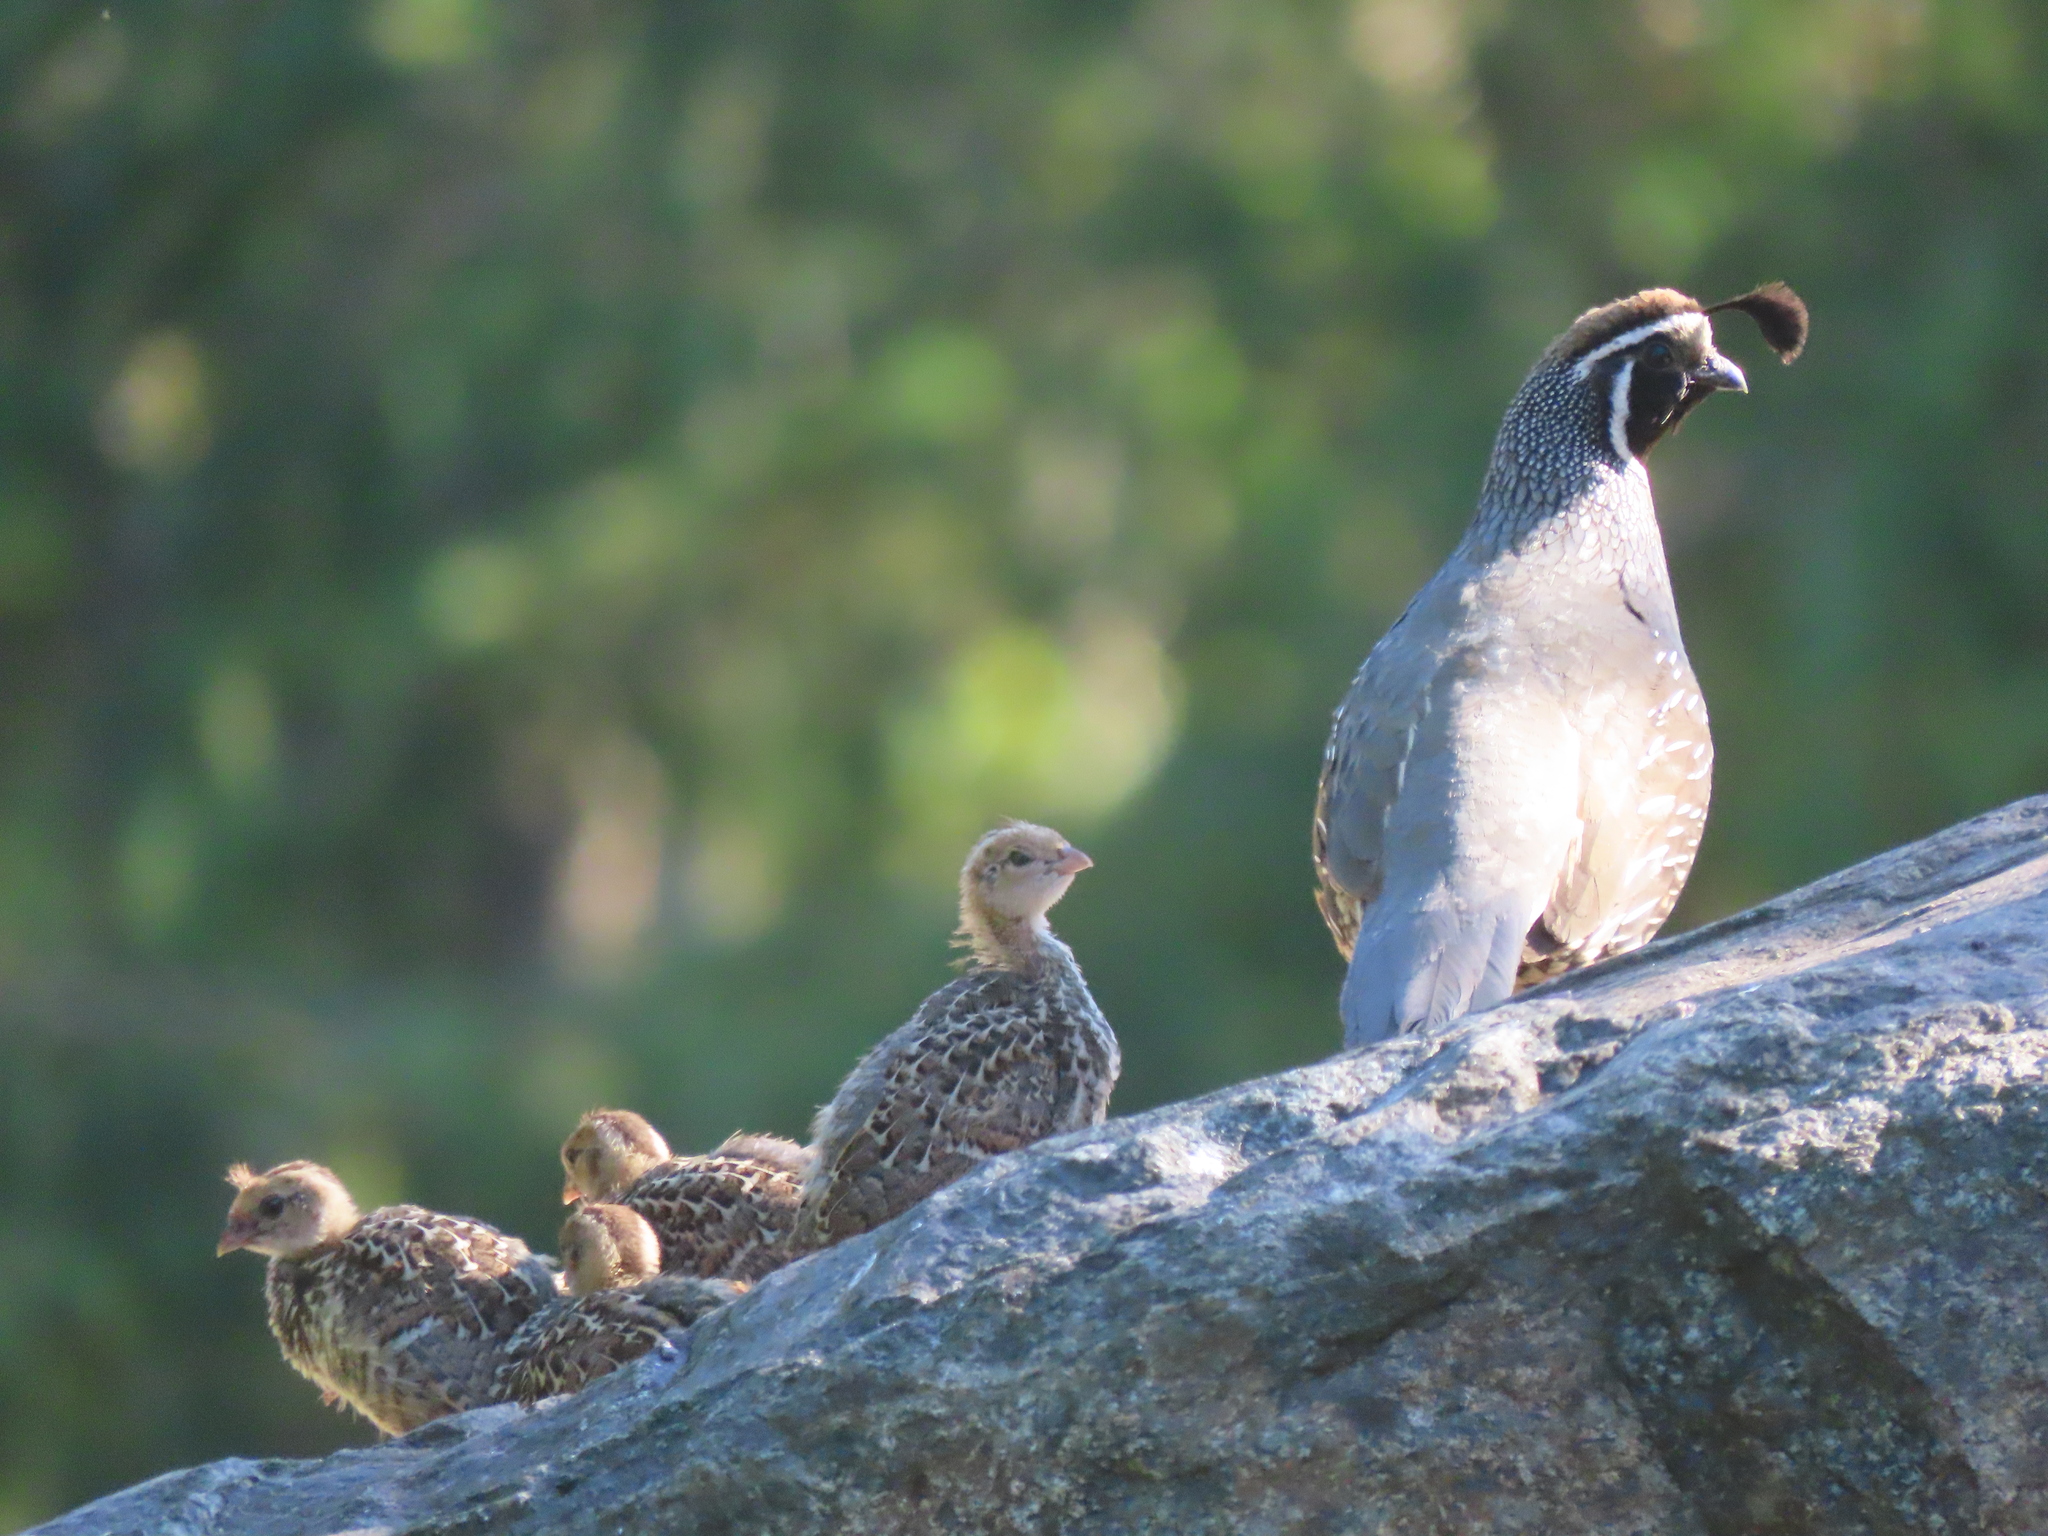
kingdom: Animalia
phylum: Chordata
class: Aves
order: Galliformes
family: Odontophoridae
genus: Callipepla
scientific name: Callipepla californica
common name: California quail
